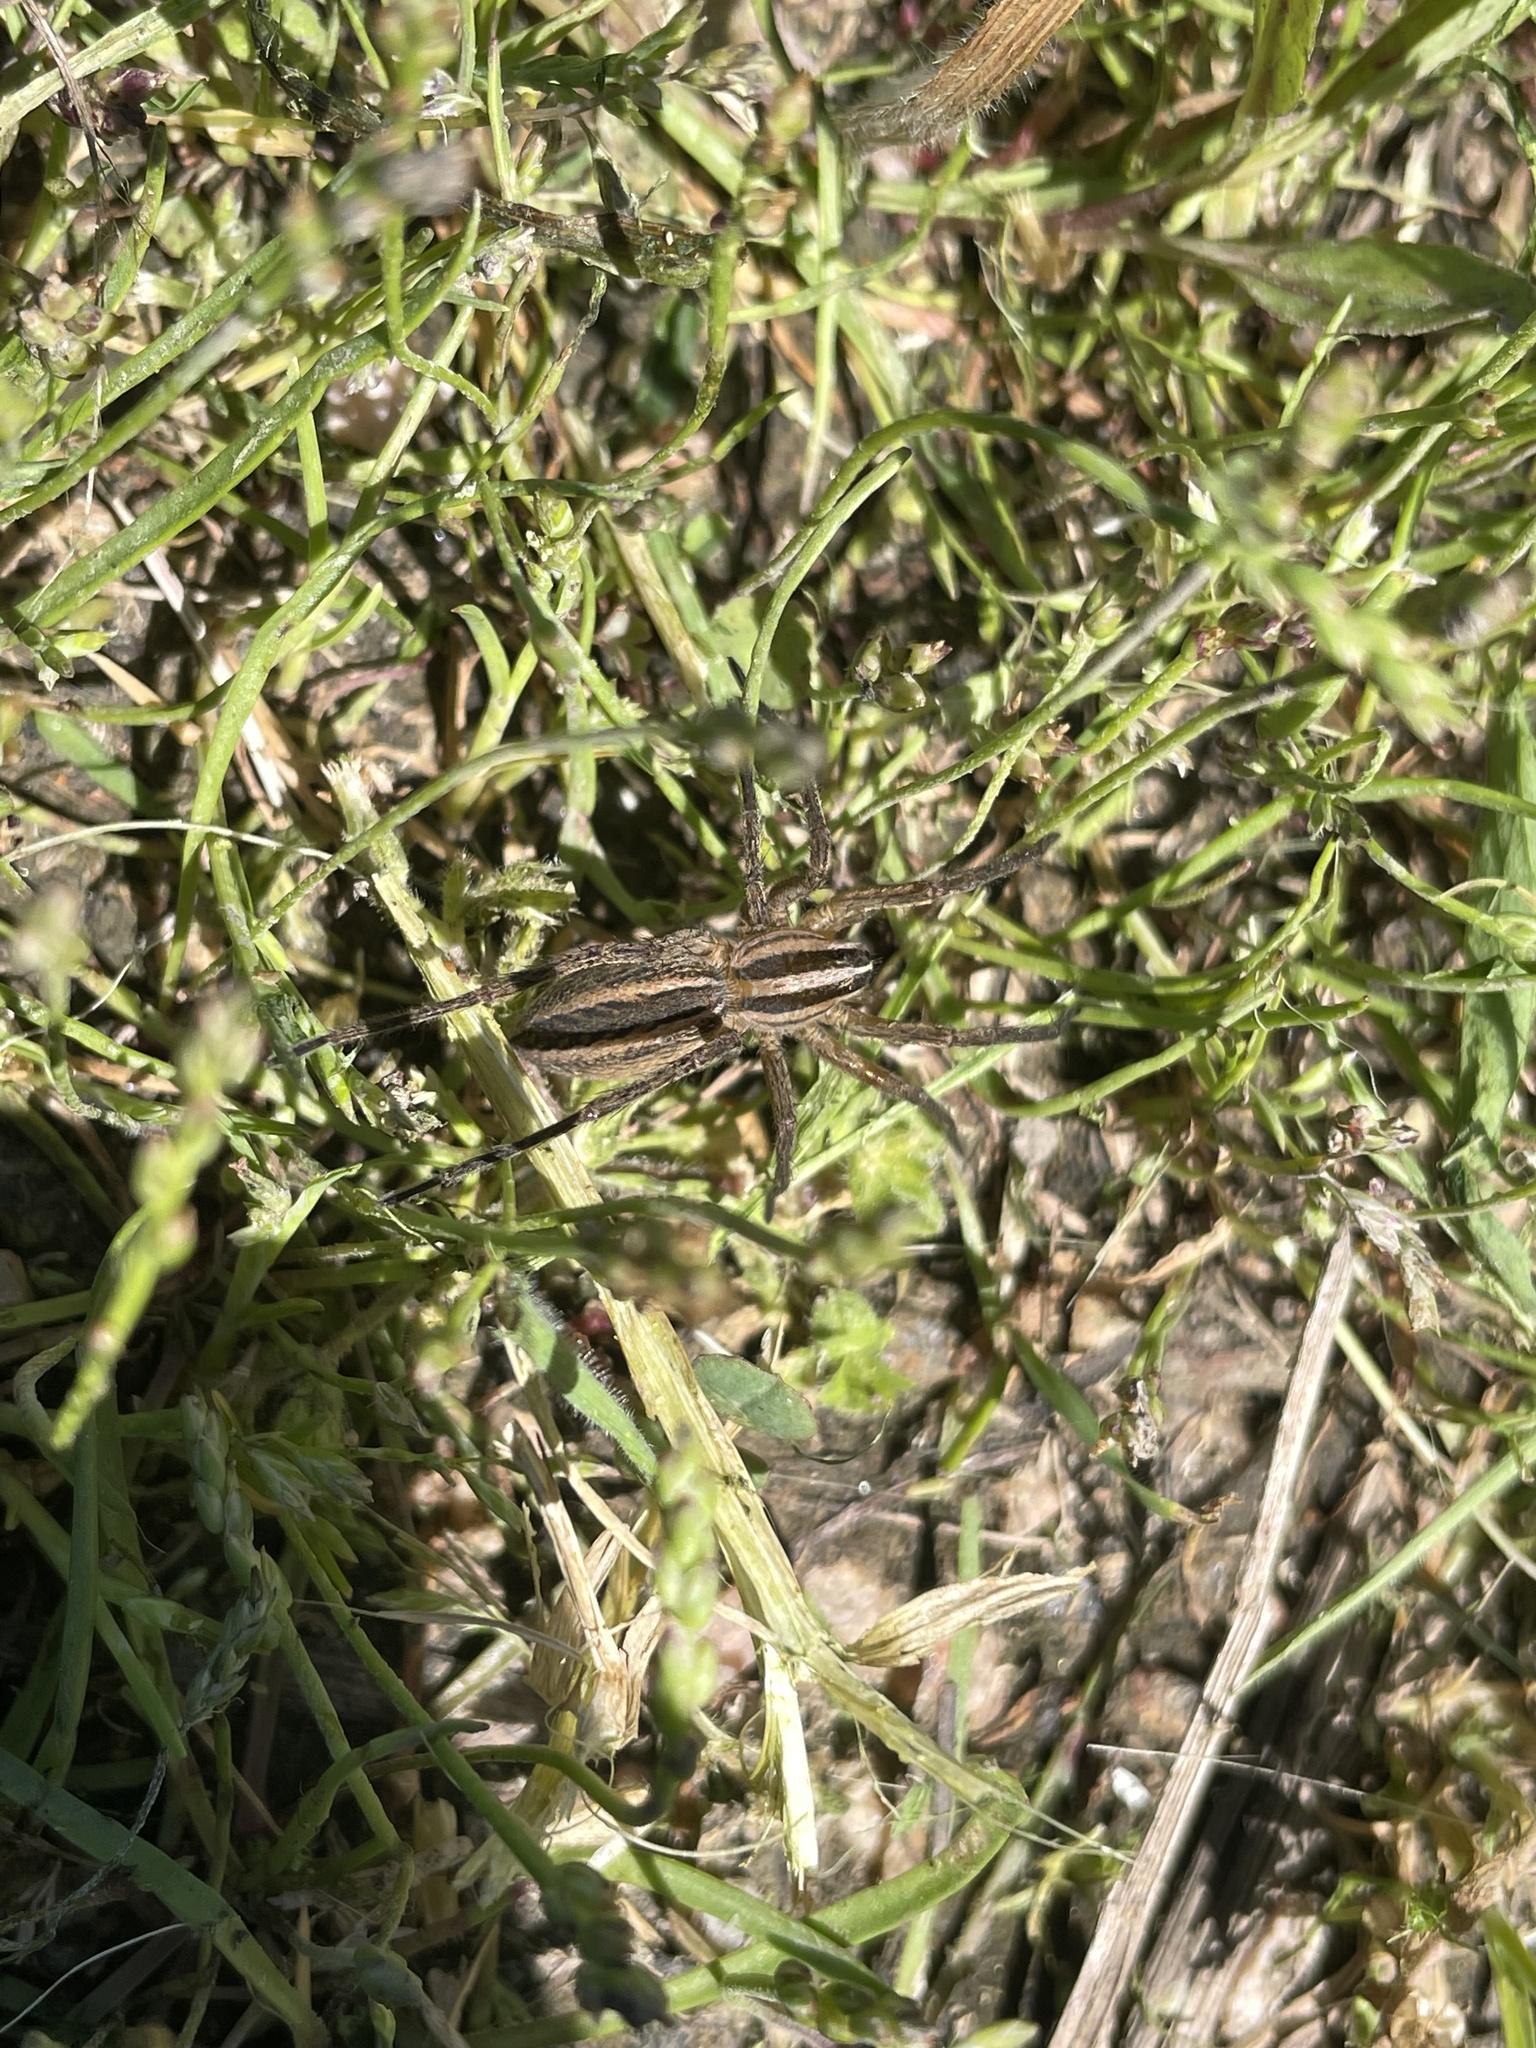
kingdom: Animalia
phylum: Arthropoda
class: Arachnida
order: Araneae
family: Lycosidae
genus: Rabidosa
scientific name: Rabidosa rabida
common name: Rabid wolf spider
